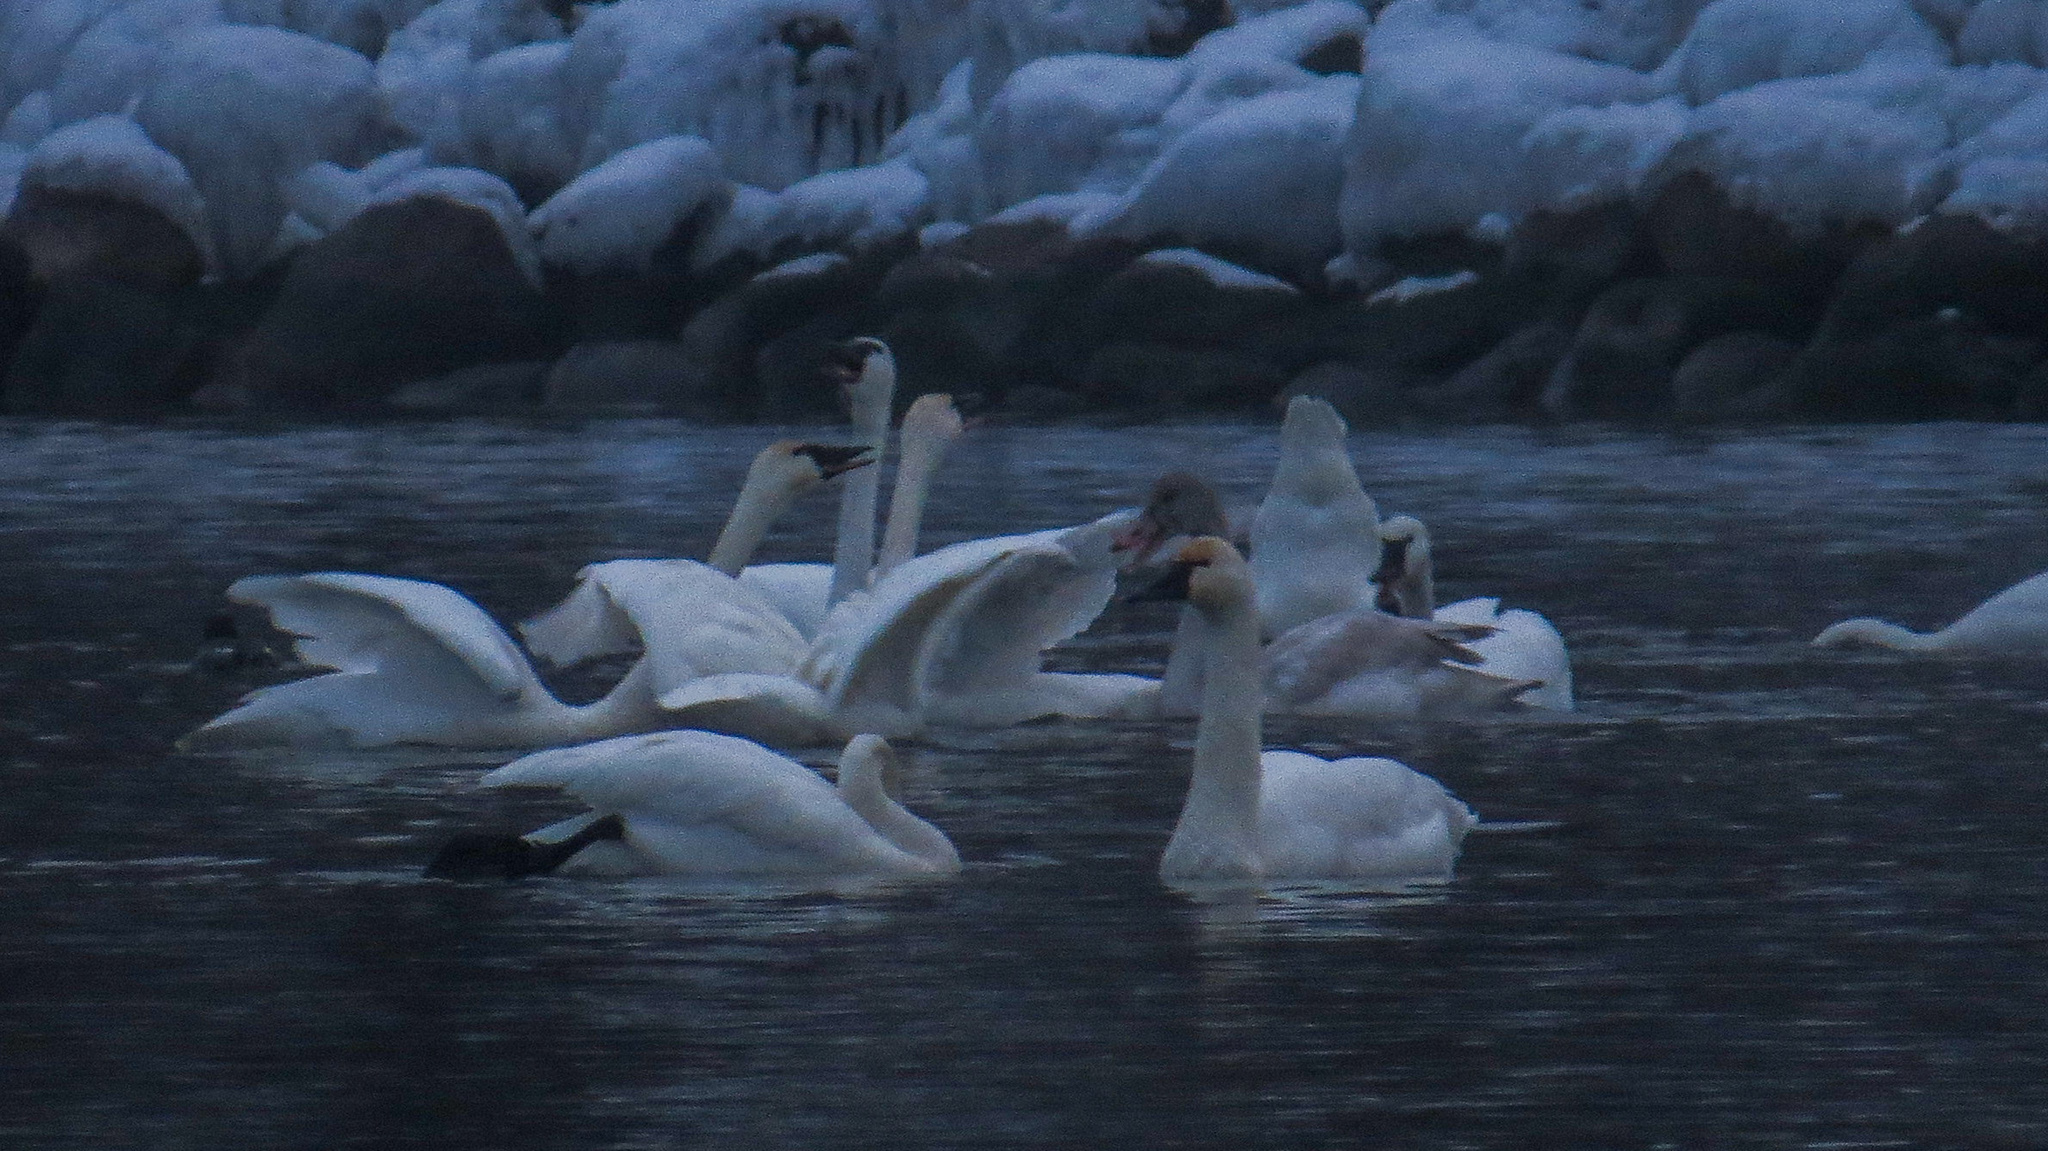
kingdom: Animalia
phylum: Chordata
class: Aves
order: Anseriformes
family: Anatidae
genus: Cygnus
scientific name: Cygnus columbianus
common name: Tundra swan
